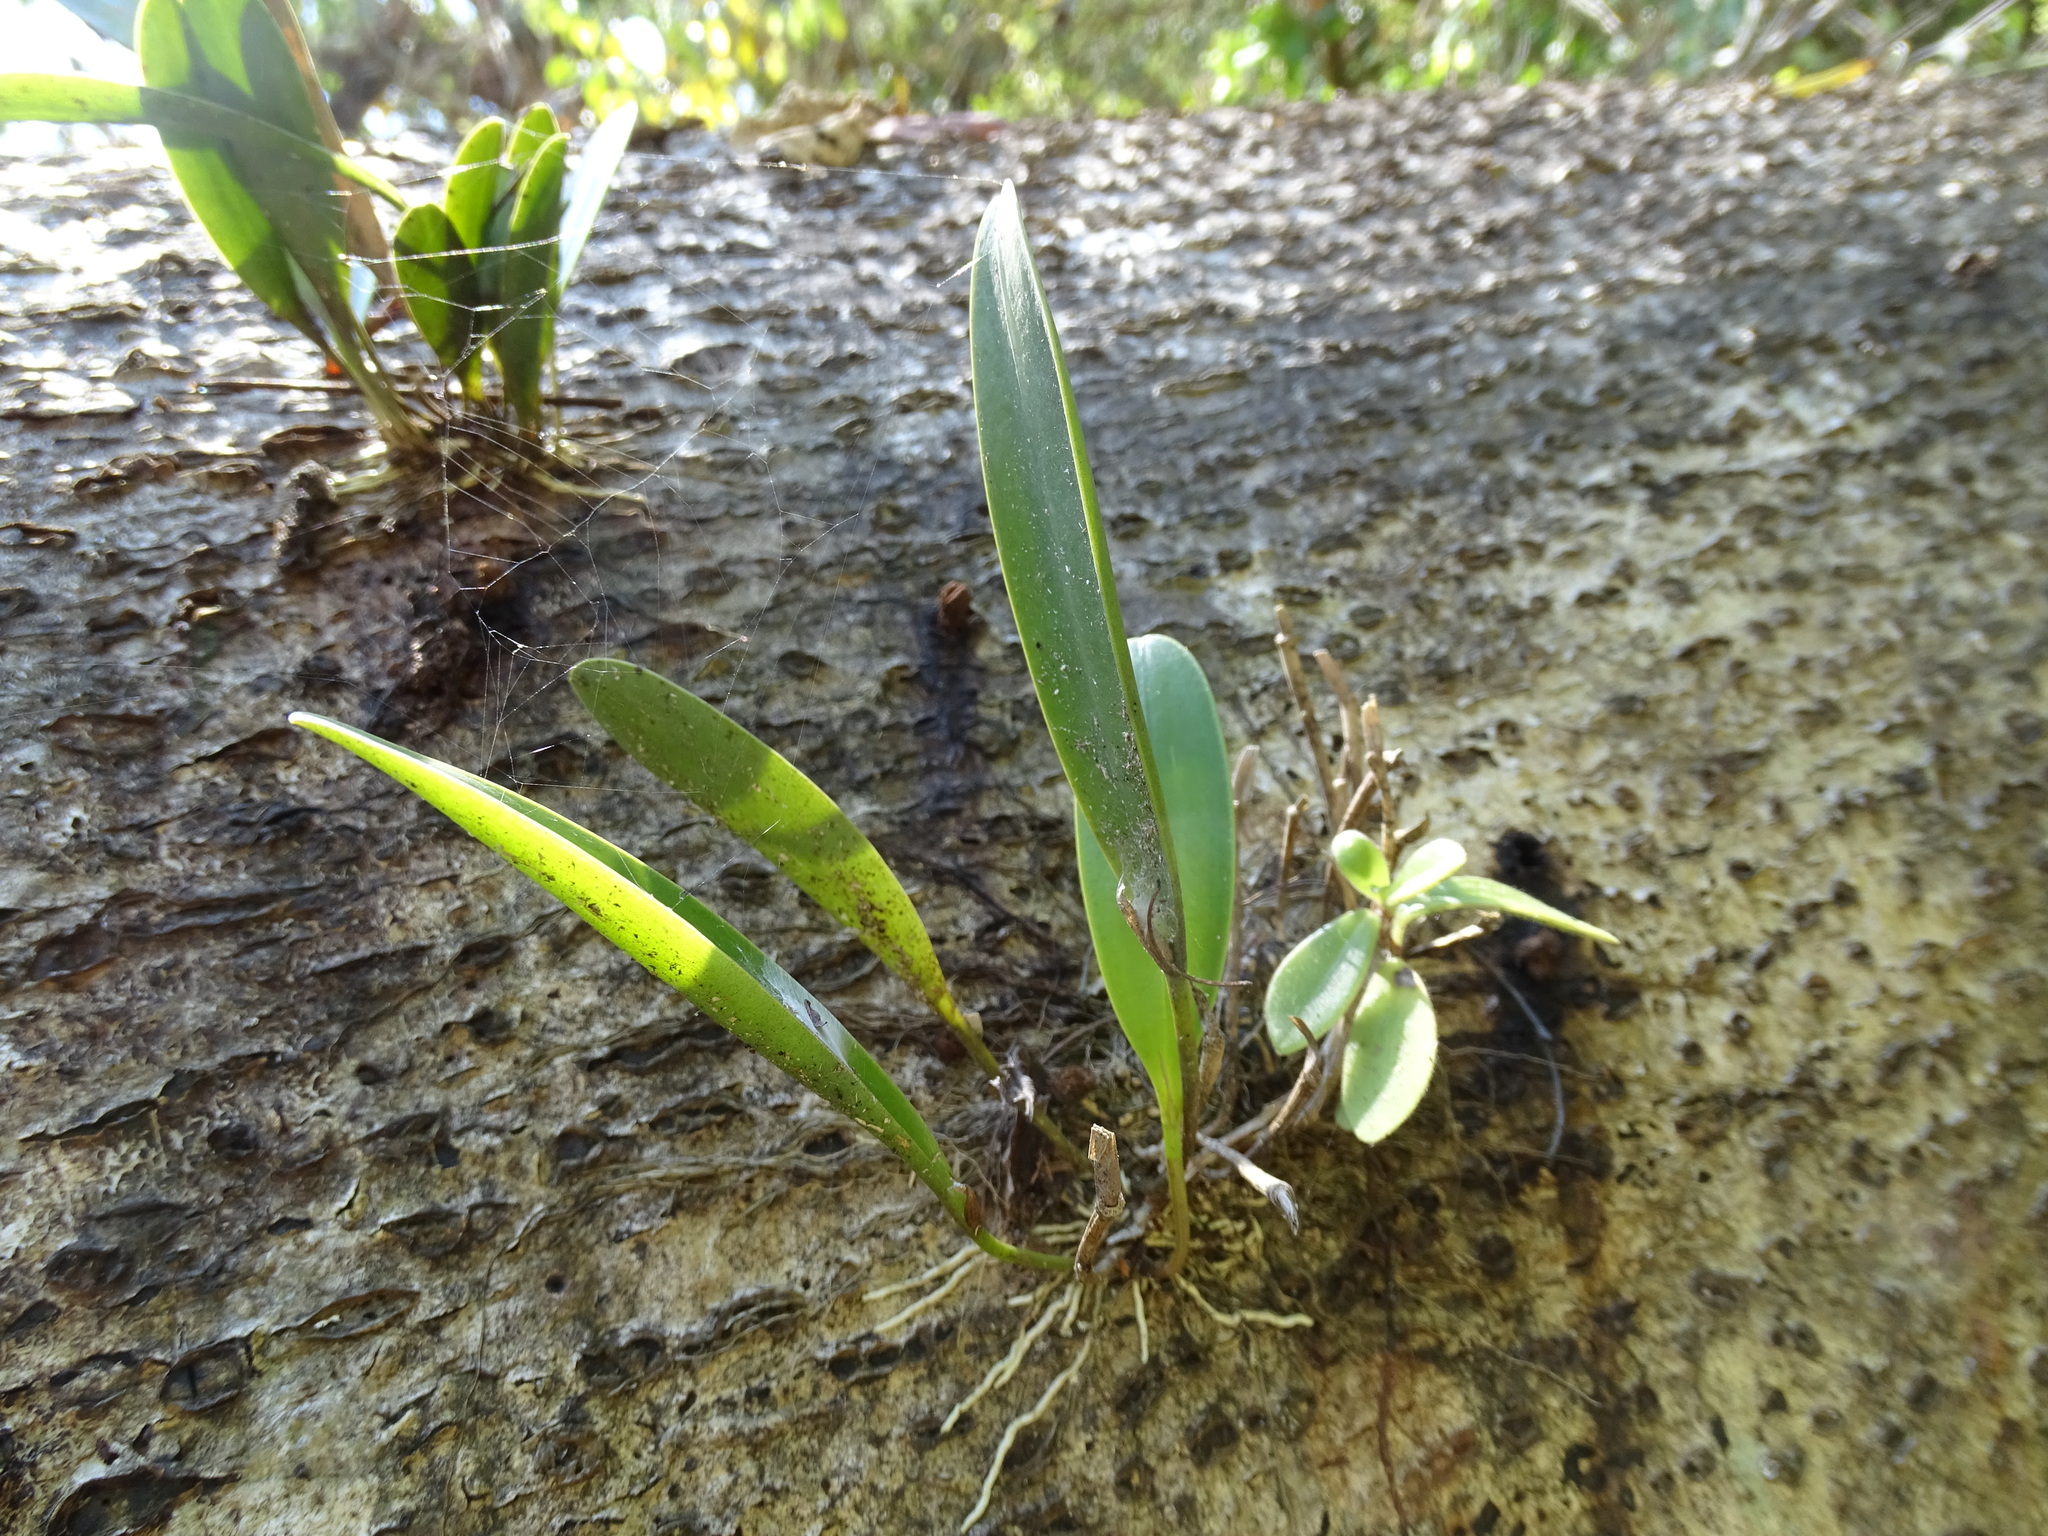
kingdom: Plantae
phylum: Tracheophyta
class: Liliopsida
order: Asparagales
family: Orchidaceae
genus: Pleurothallis
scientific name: Pleurothallis quadrifida
